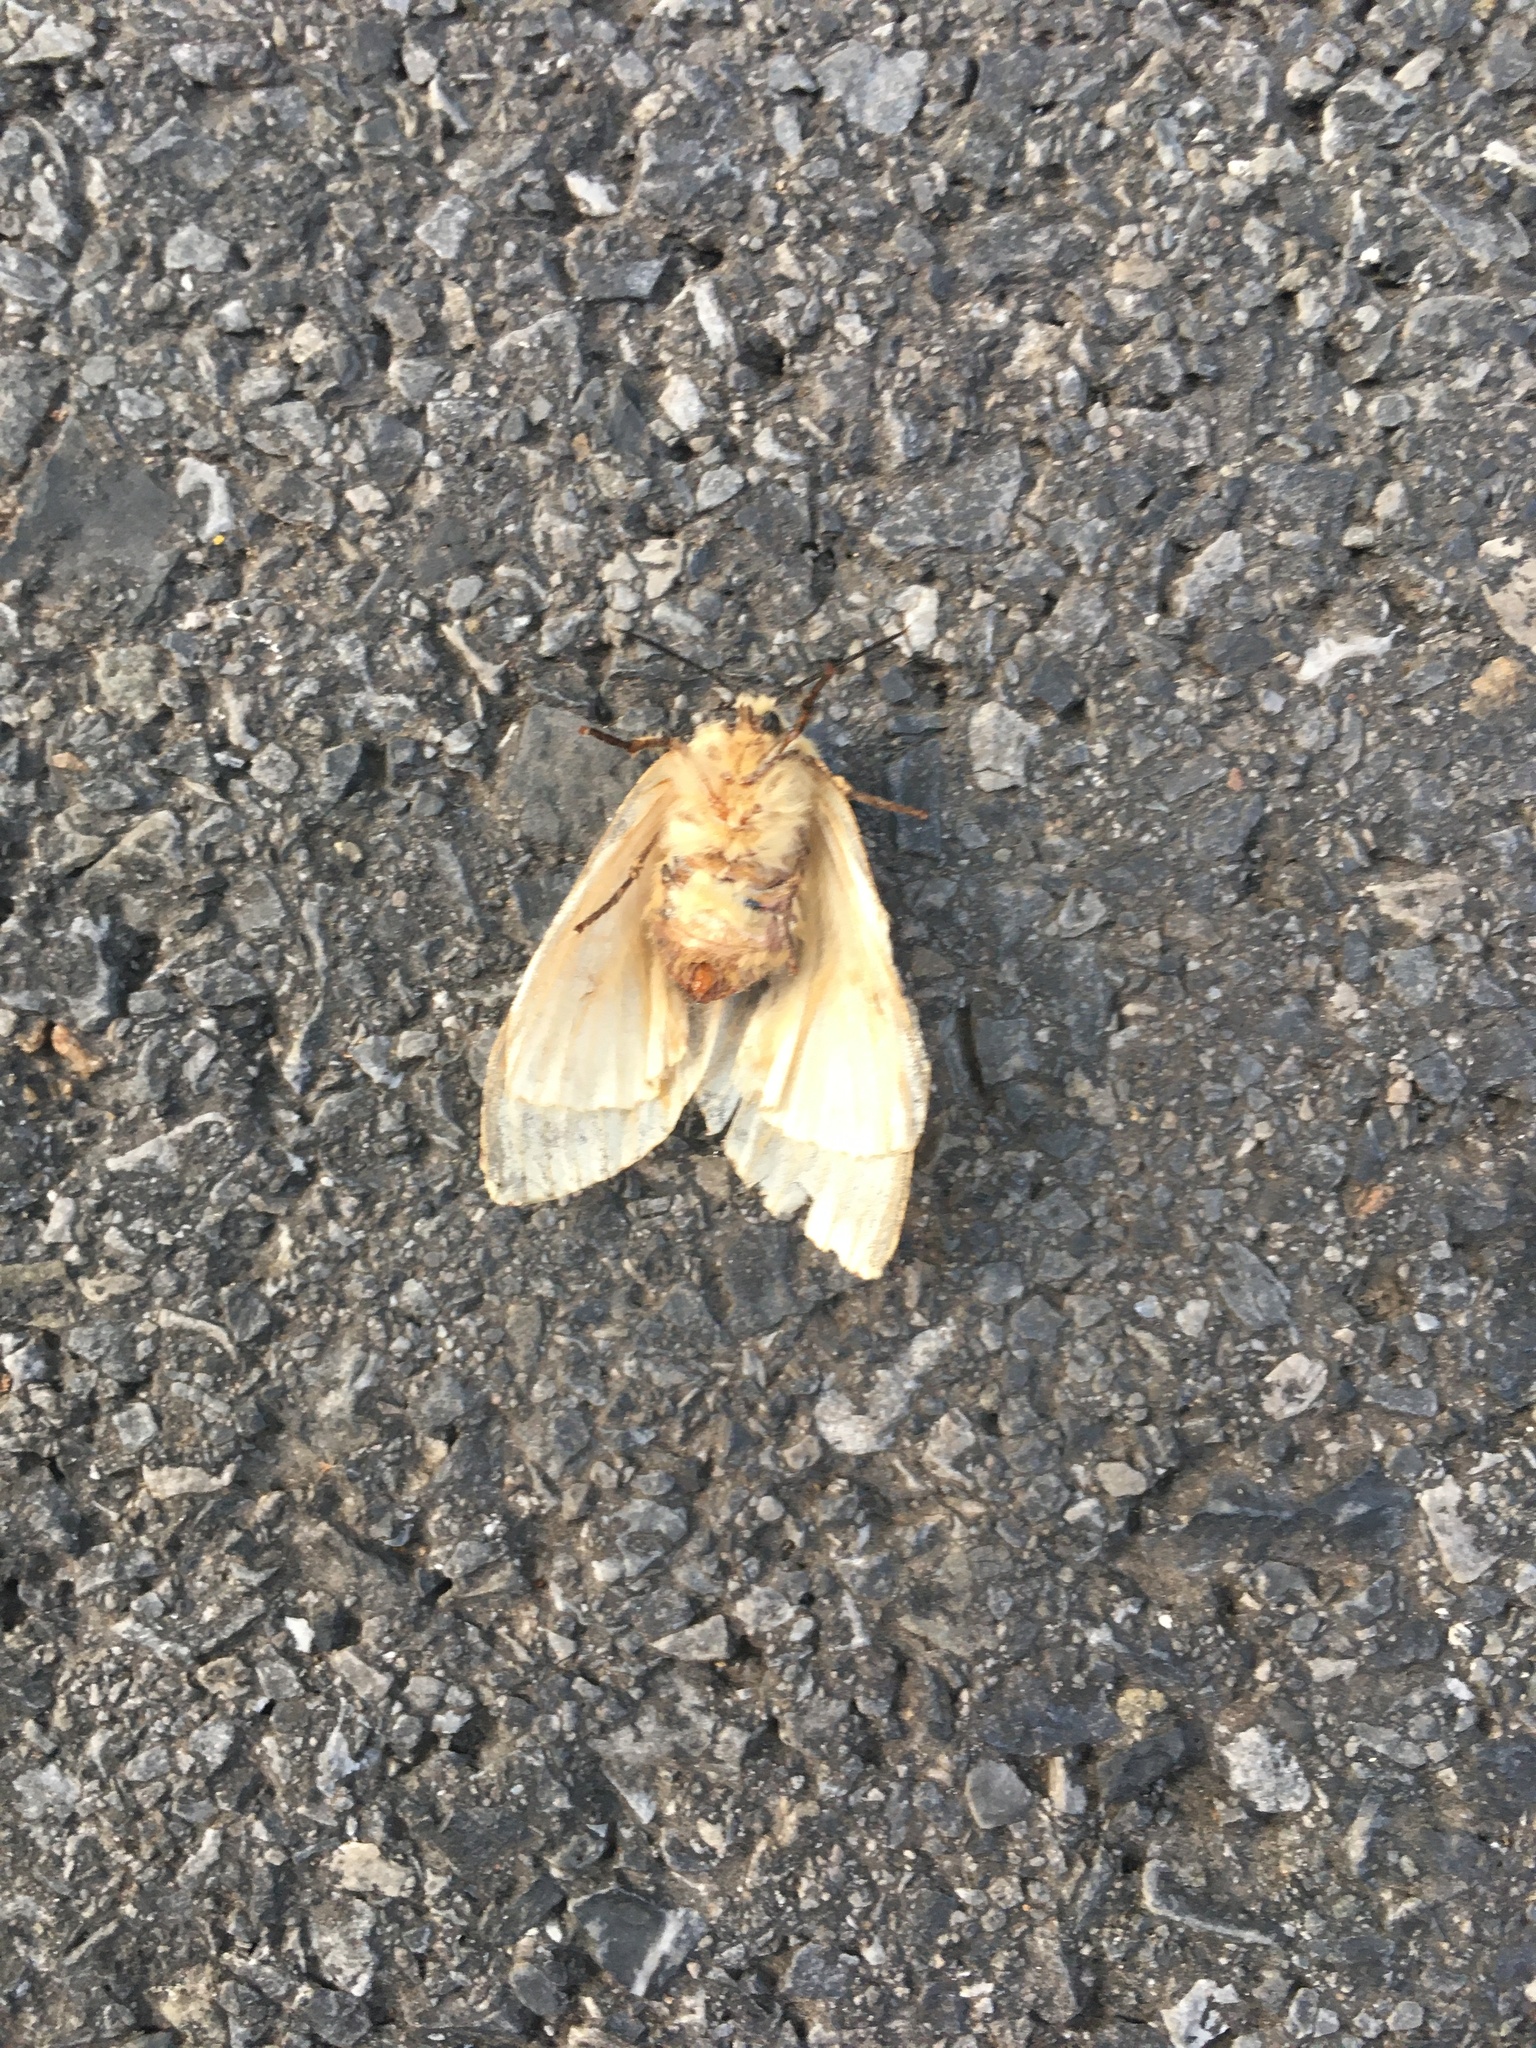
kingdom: Animalia
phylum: Arthropoda
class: Insecta
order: Lepidoptera
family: Erebidae
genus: Lymantria
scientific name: Lymantria dispar
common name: Gypsy moth
